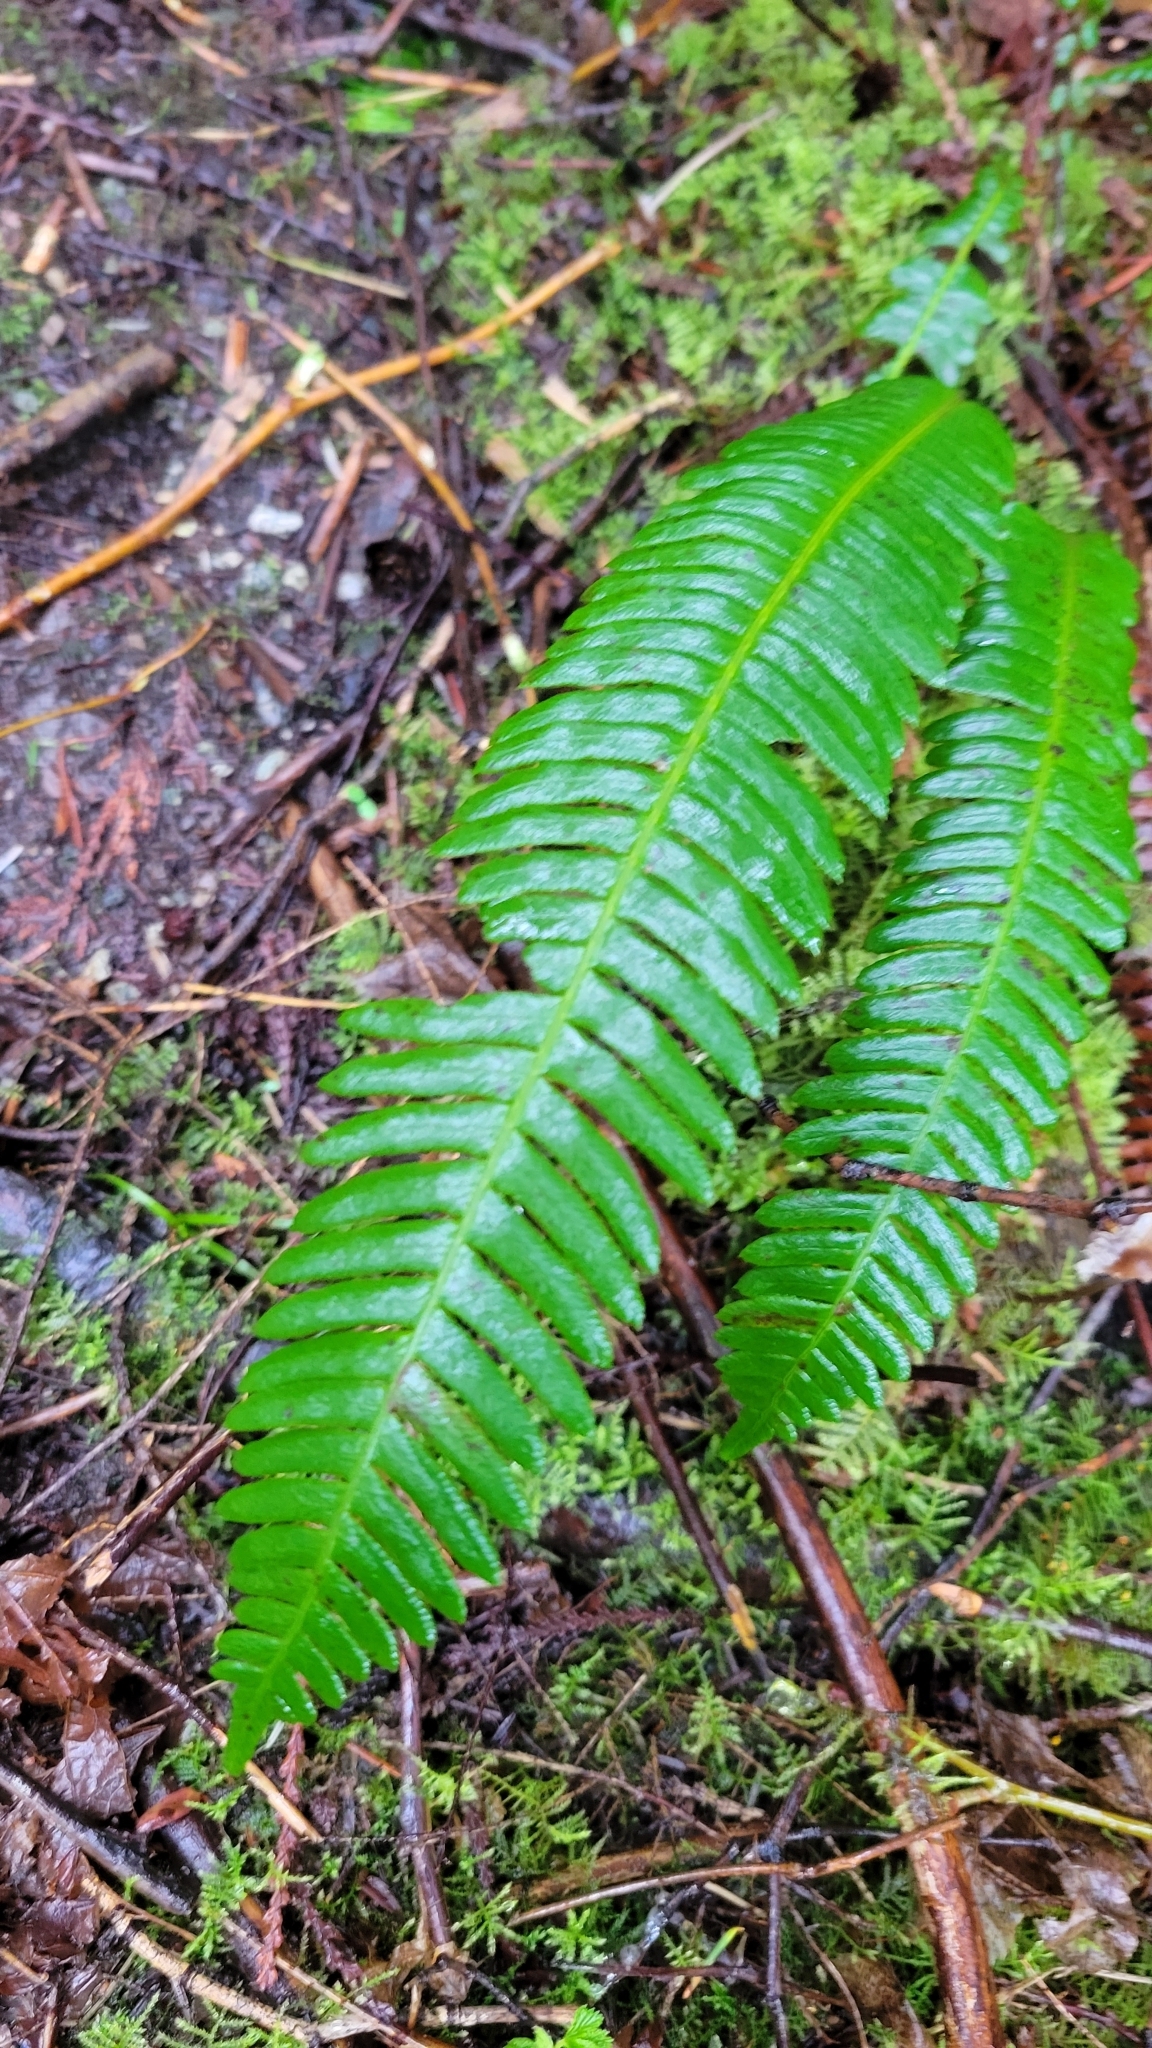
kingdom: Plantae
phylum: Tracheophyta
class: Polypodiopsida
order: Polypodiales
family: Blechnaceae
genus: Struthiopteris
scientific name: Struthiopteris spicant
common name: Deer fern
